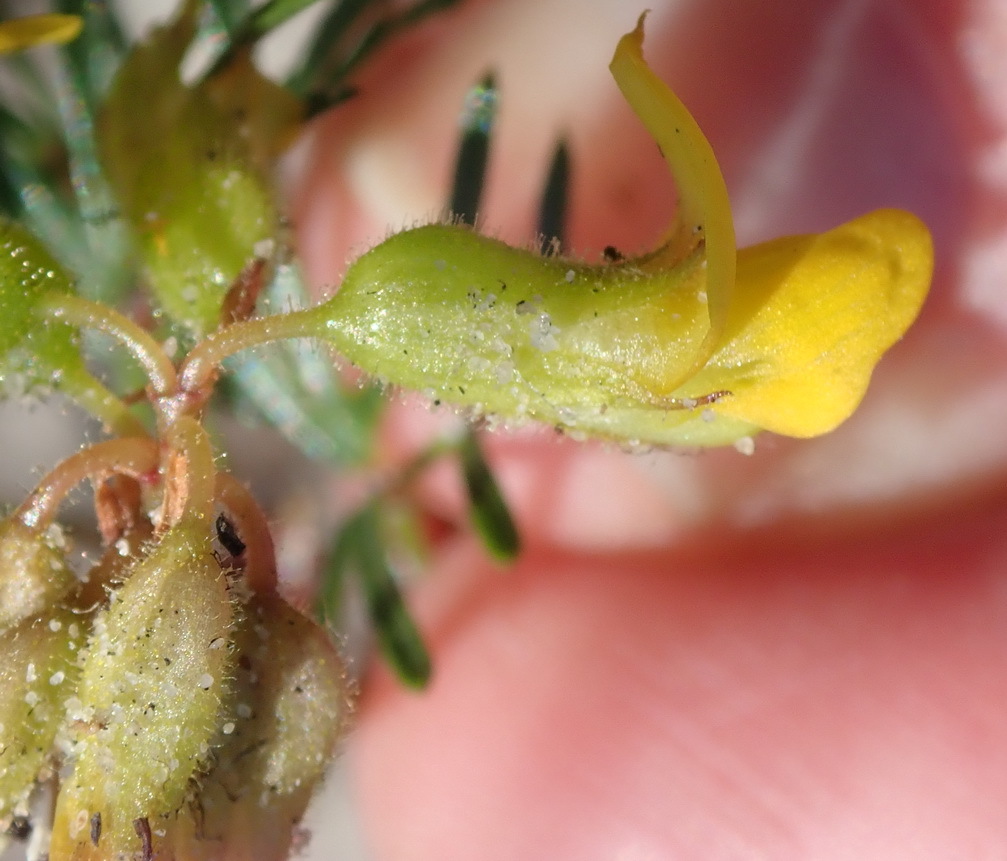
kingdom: Plantae
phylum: Tracheophyta
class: Magnoliopsida
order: Fabales
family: Fabaceae
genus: Rhynchosia
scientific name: Rhynchosia ferulifolia
